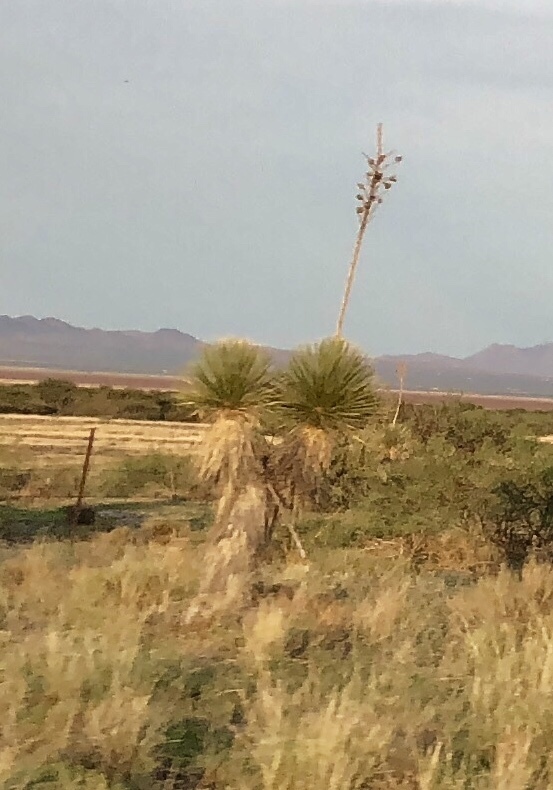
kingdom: Plantae
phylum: Tracheophyta
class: Liliopsida
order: Asparagales
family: Asparagaceae
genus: Yucca
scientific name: Yucca elata
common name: Palmella
